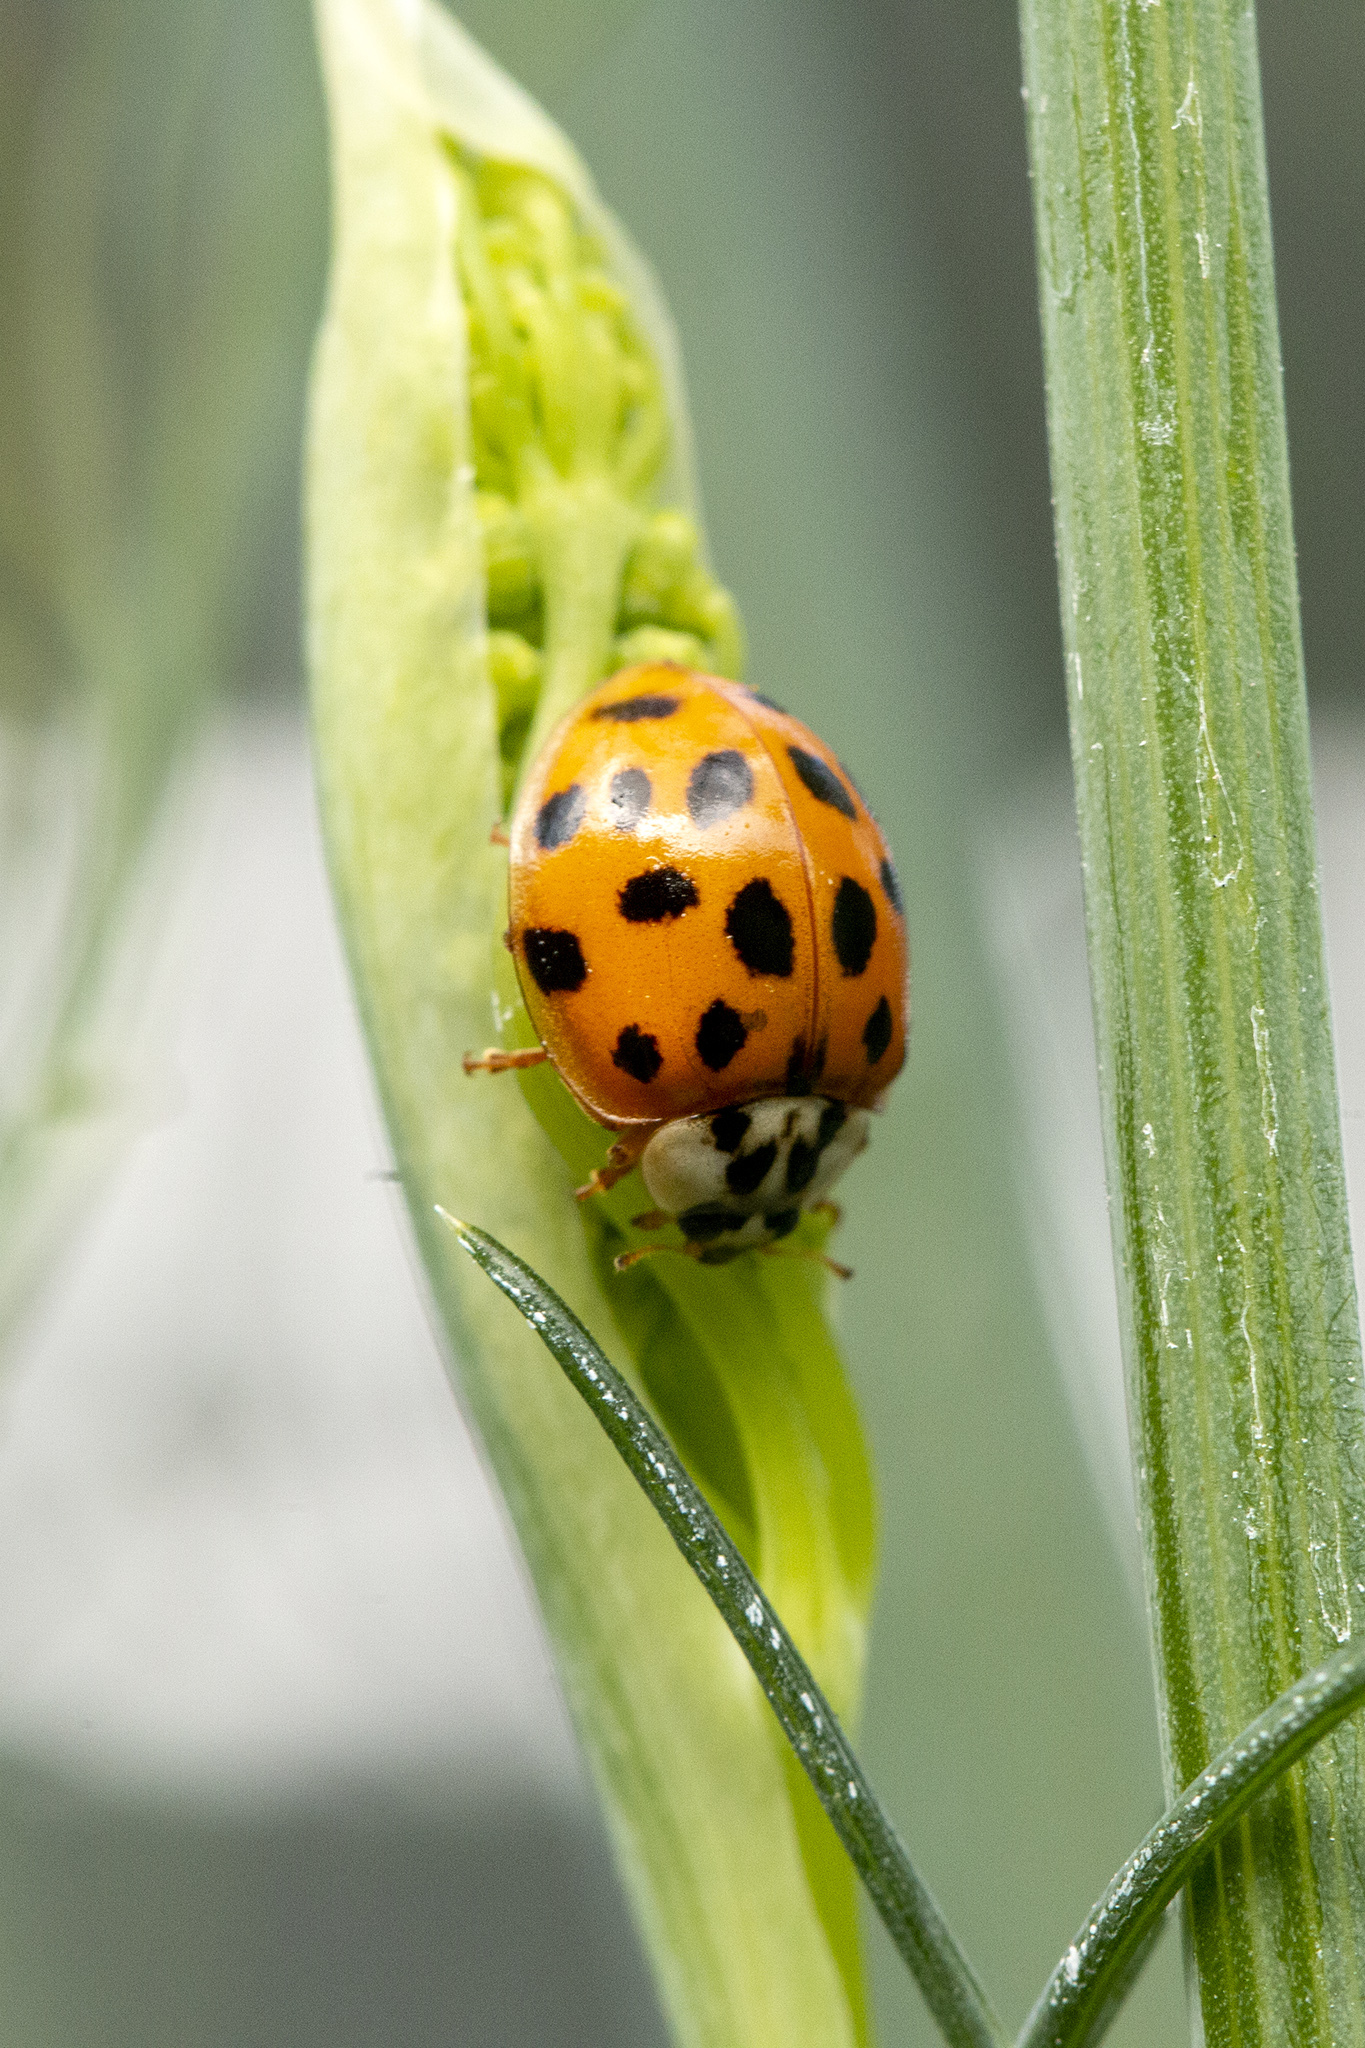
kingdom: Animalia
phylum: Arthropoda
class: Insecta
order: Coleoptera
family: Coccinellidae
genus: Harmonia
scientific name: Harmonia axyridis
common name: Harlequin ladybird
